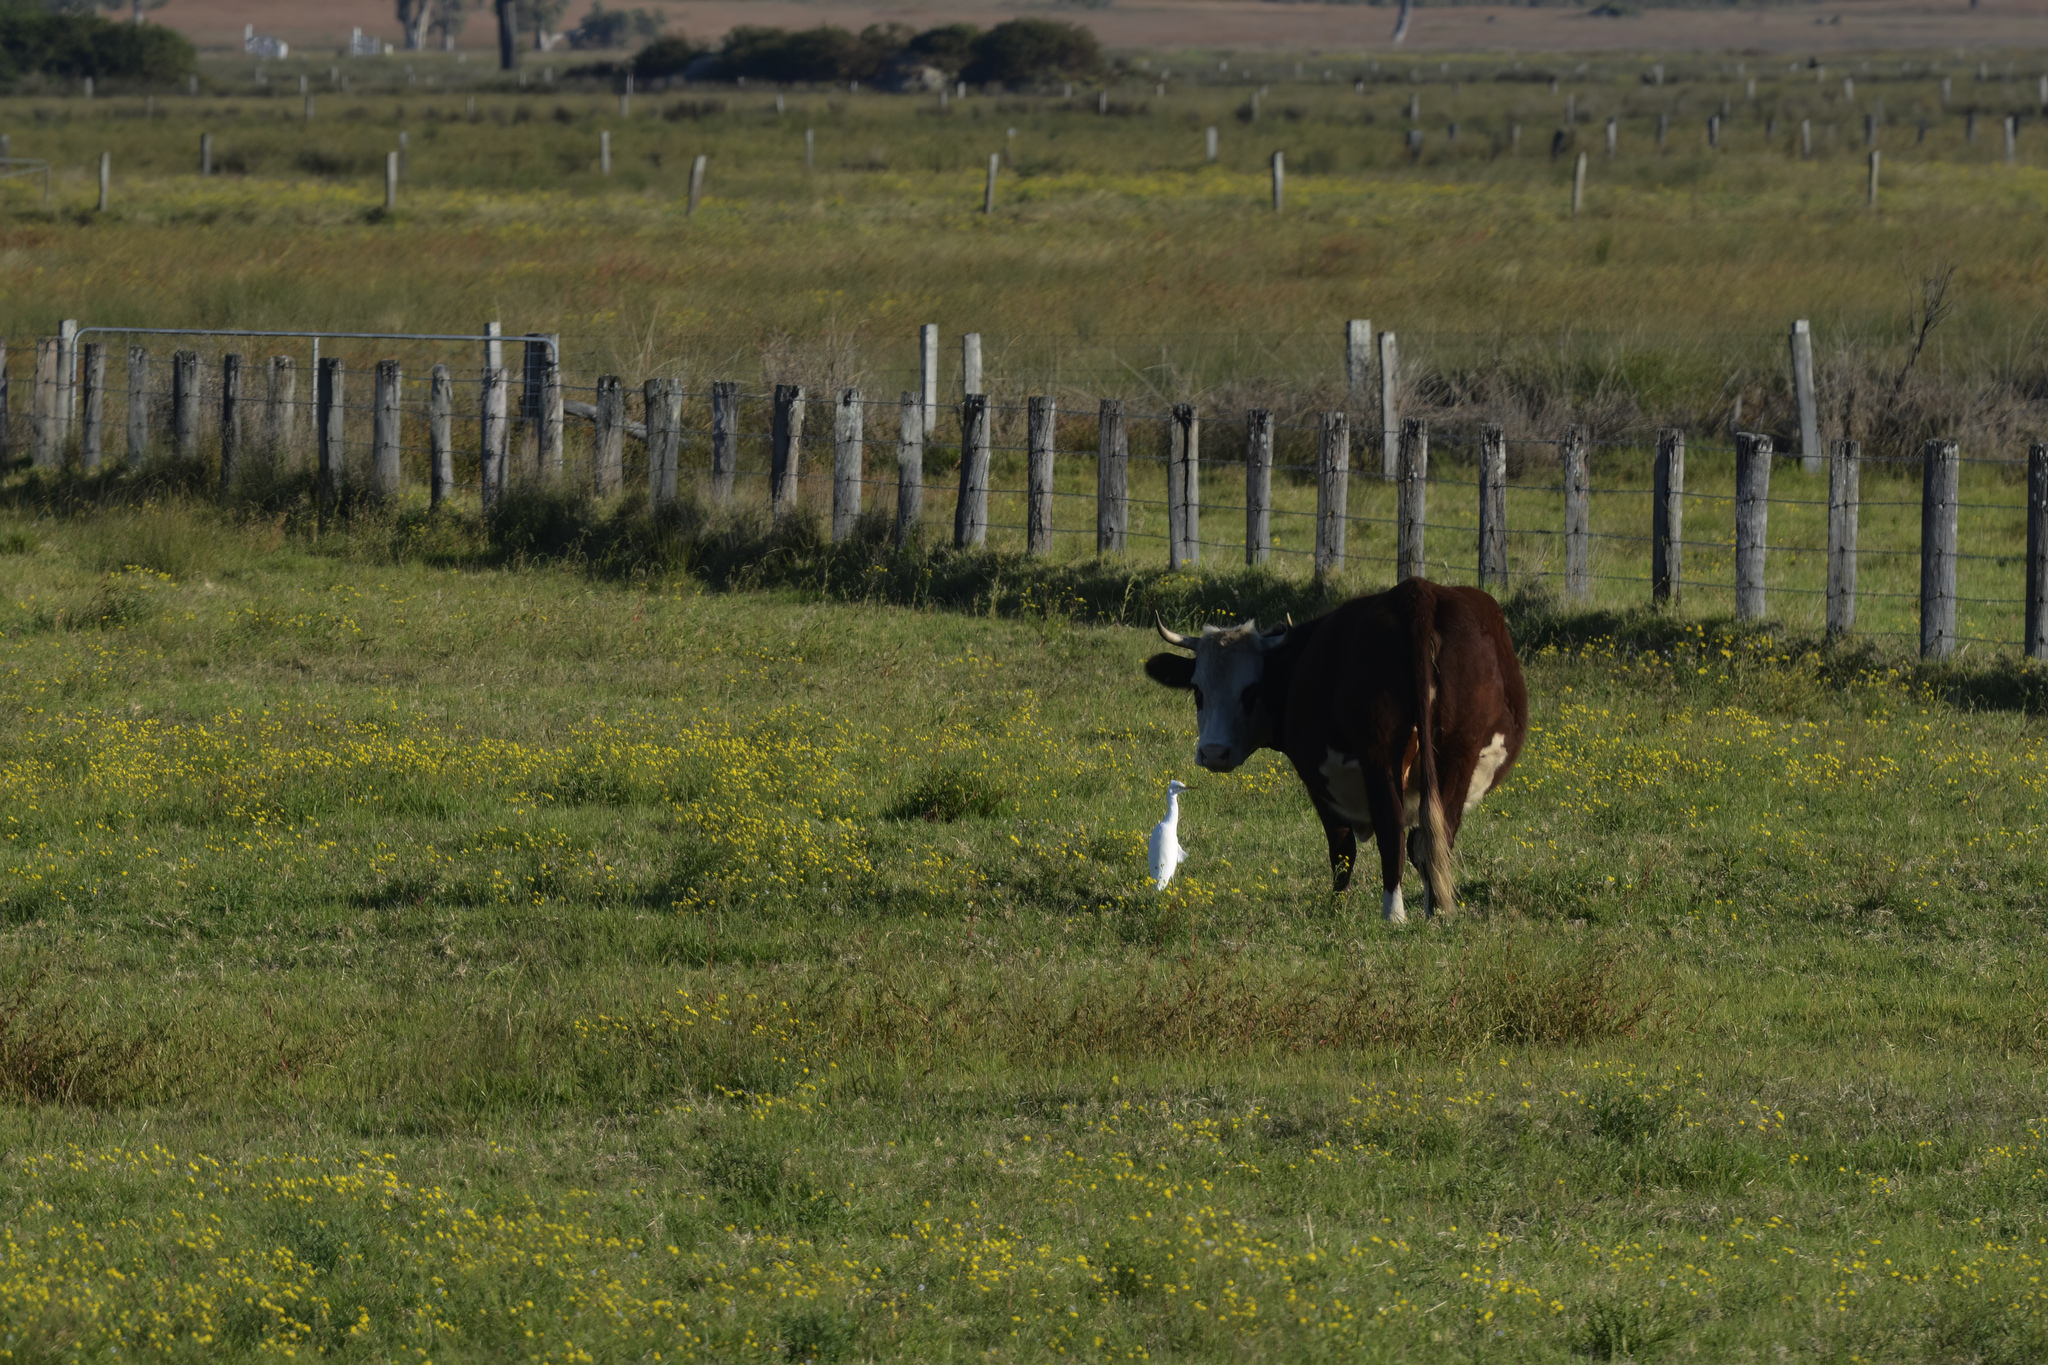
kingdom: Animalia
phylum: Chordata
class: Aves
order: Pelecaniformes
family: Ardeidae
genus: Bubulcus
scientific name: Bubulcus coromandus
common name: Eastern cattle egret
